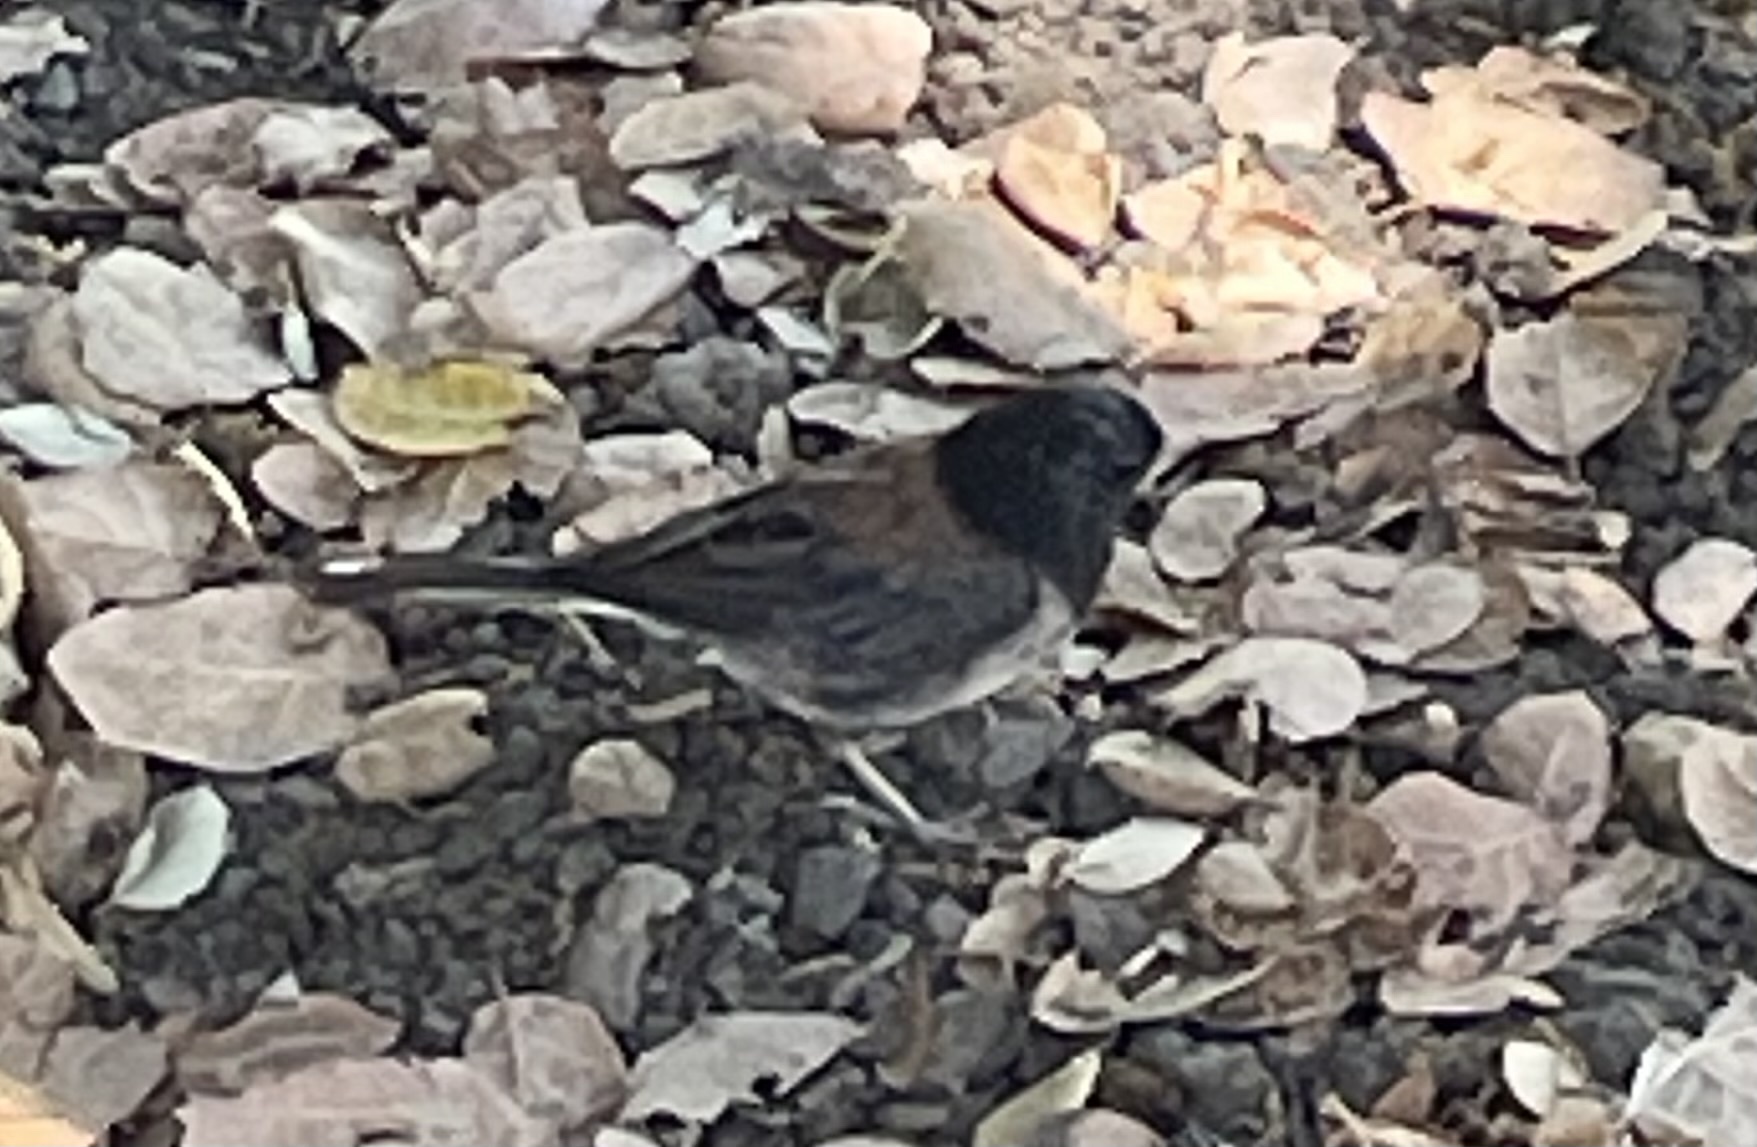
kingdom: Animalia
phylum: Chordata
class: Aves
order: Passeriformes
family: Passerellidae
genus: Junco
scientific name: Junco hyemalis
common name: Dark-eyed junco
